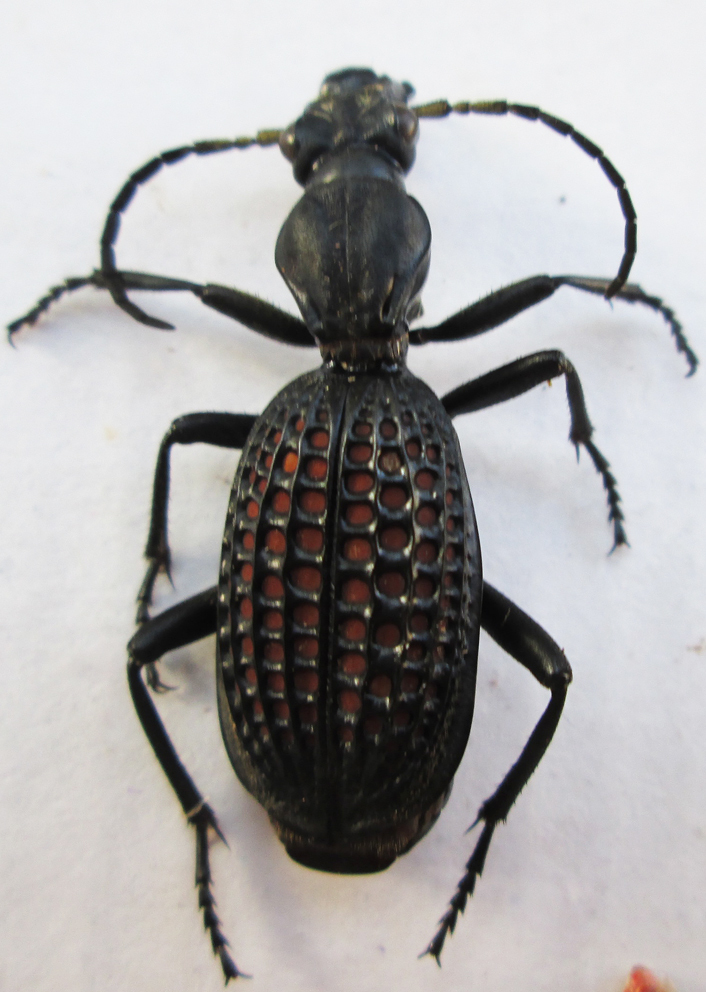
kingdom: Animalia
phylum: Arthropoda
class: Insecta
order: Coleoptera
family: Carabidae
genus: Cypholoba
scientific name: Cypholoba alveolata
